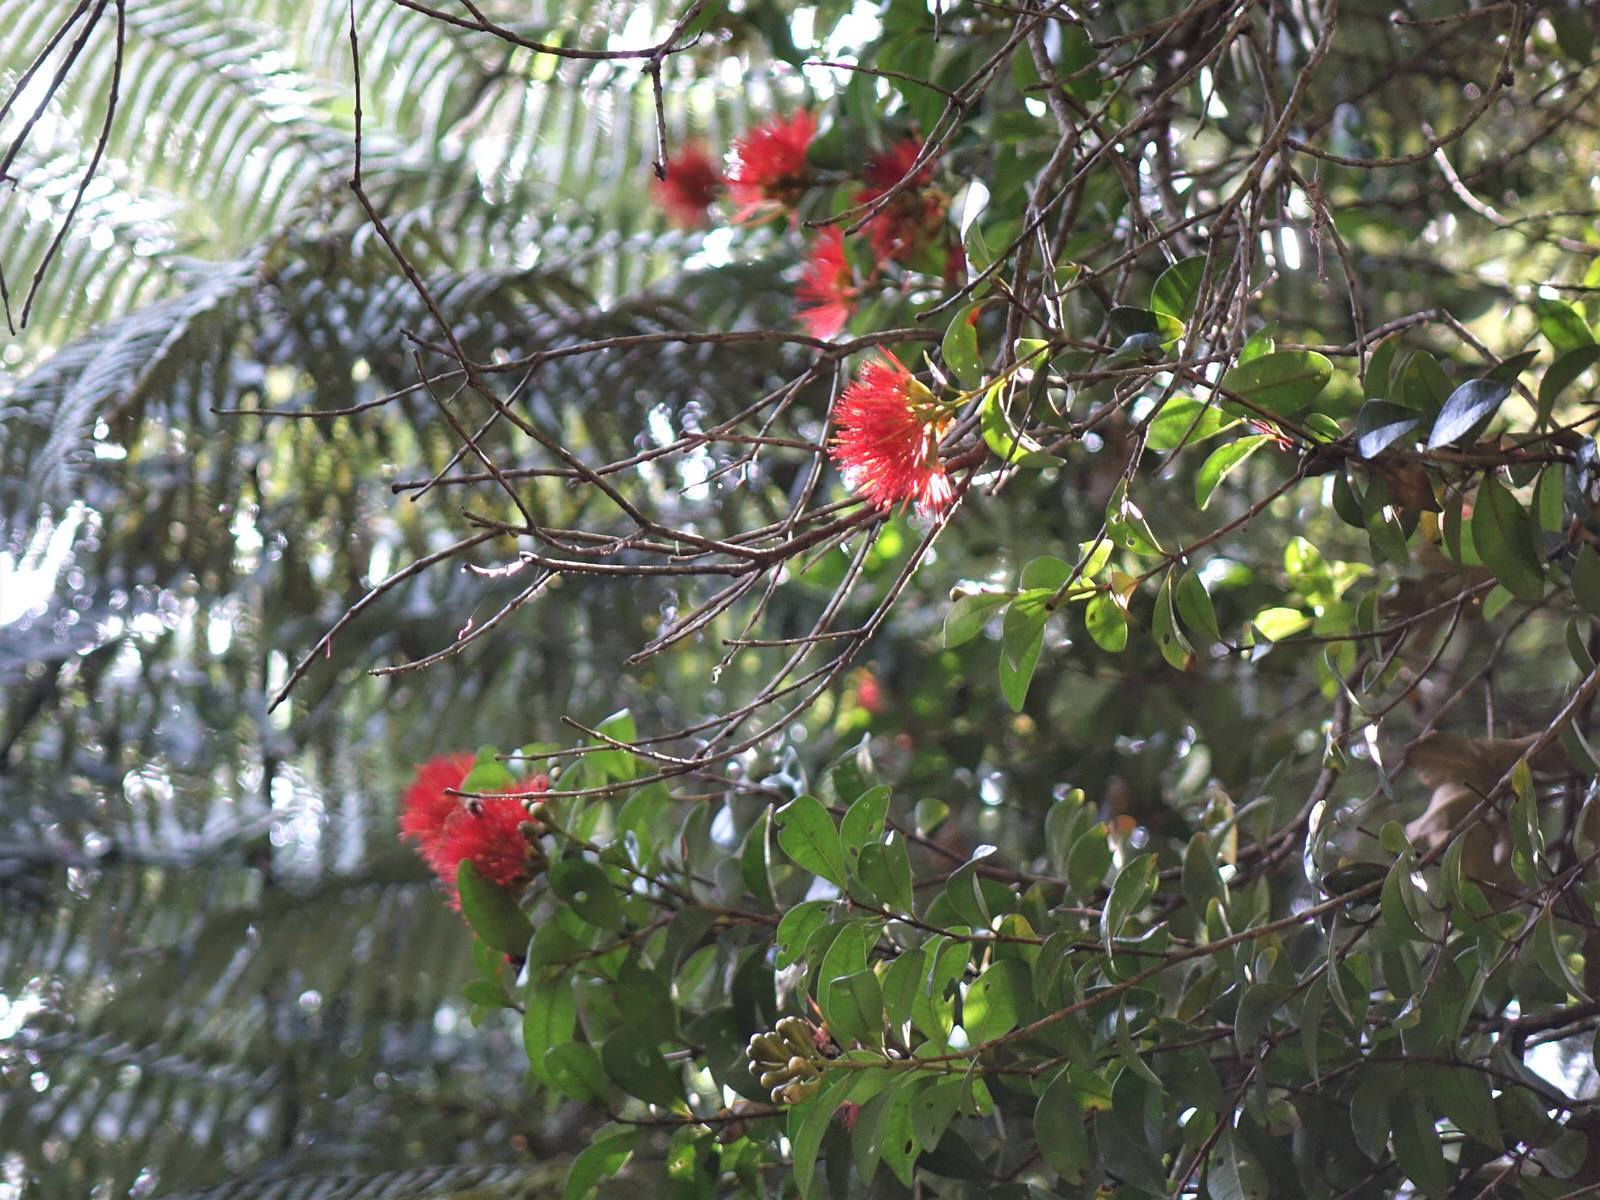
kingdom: Plantae
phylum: Tracheophyta
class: Magnoliopsida
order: Myrtales
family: Myrtaceae
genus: Metrosideros
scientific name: Metrosideros fulgens
